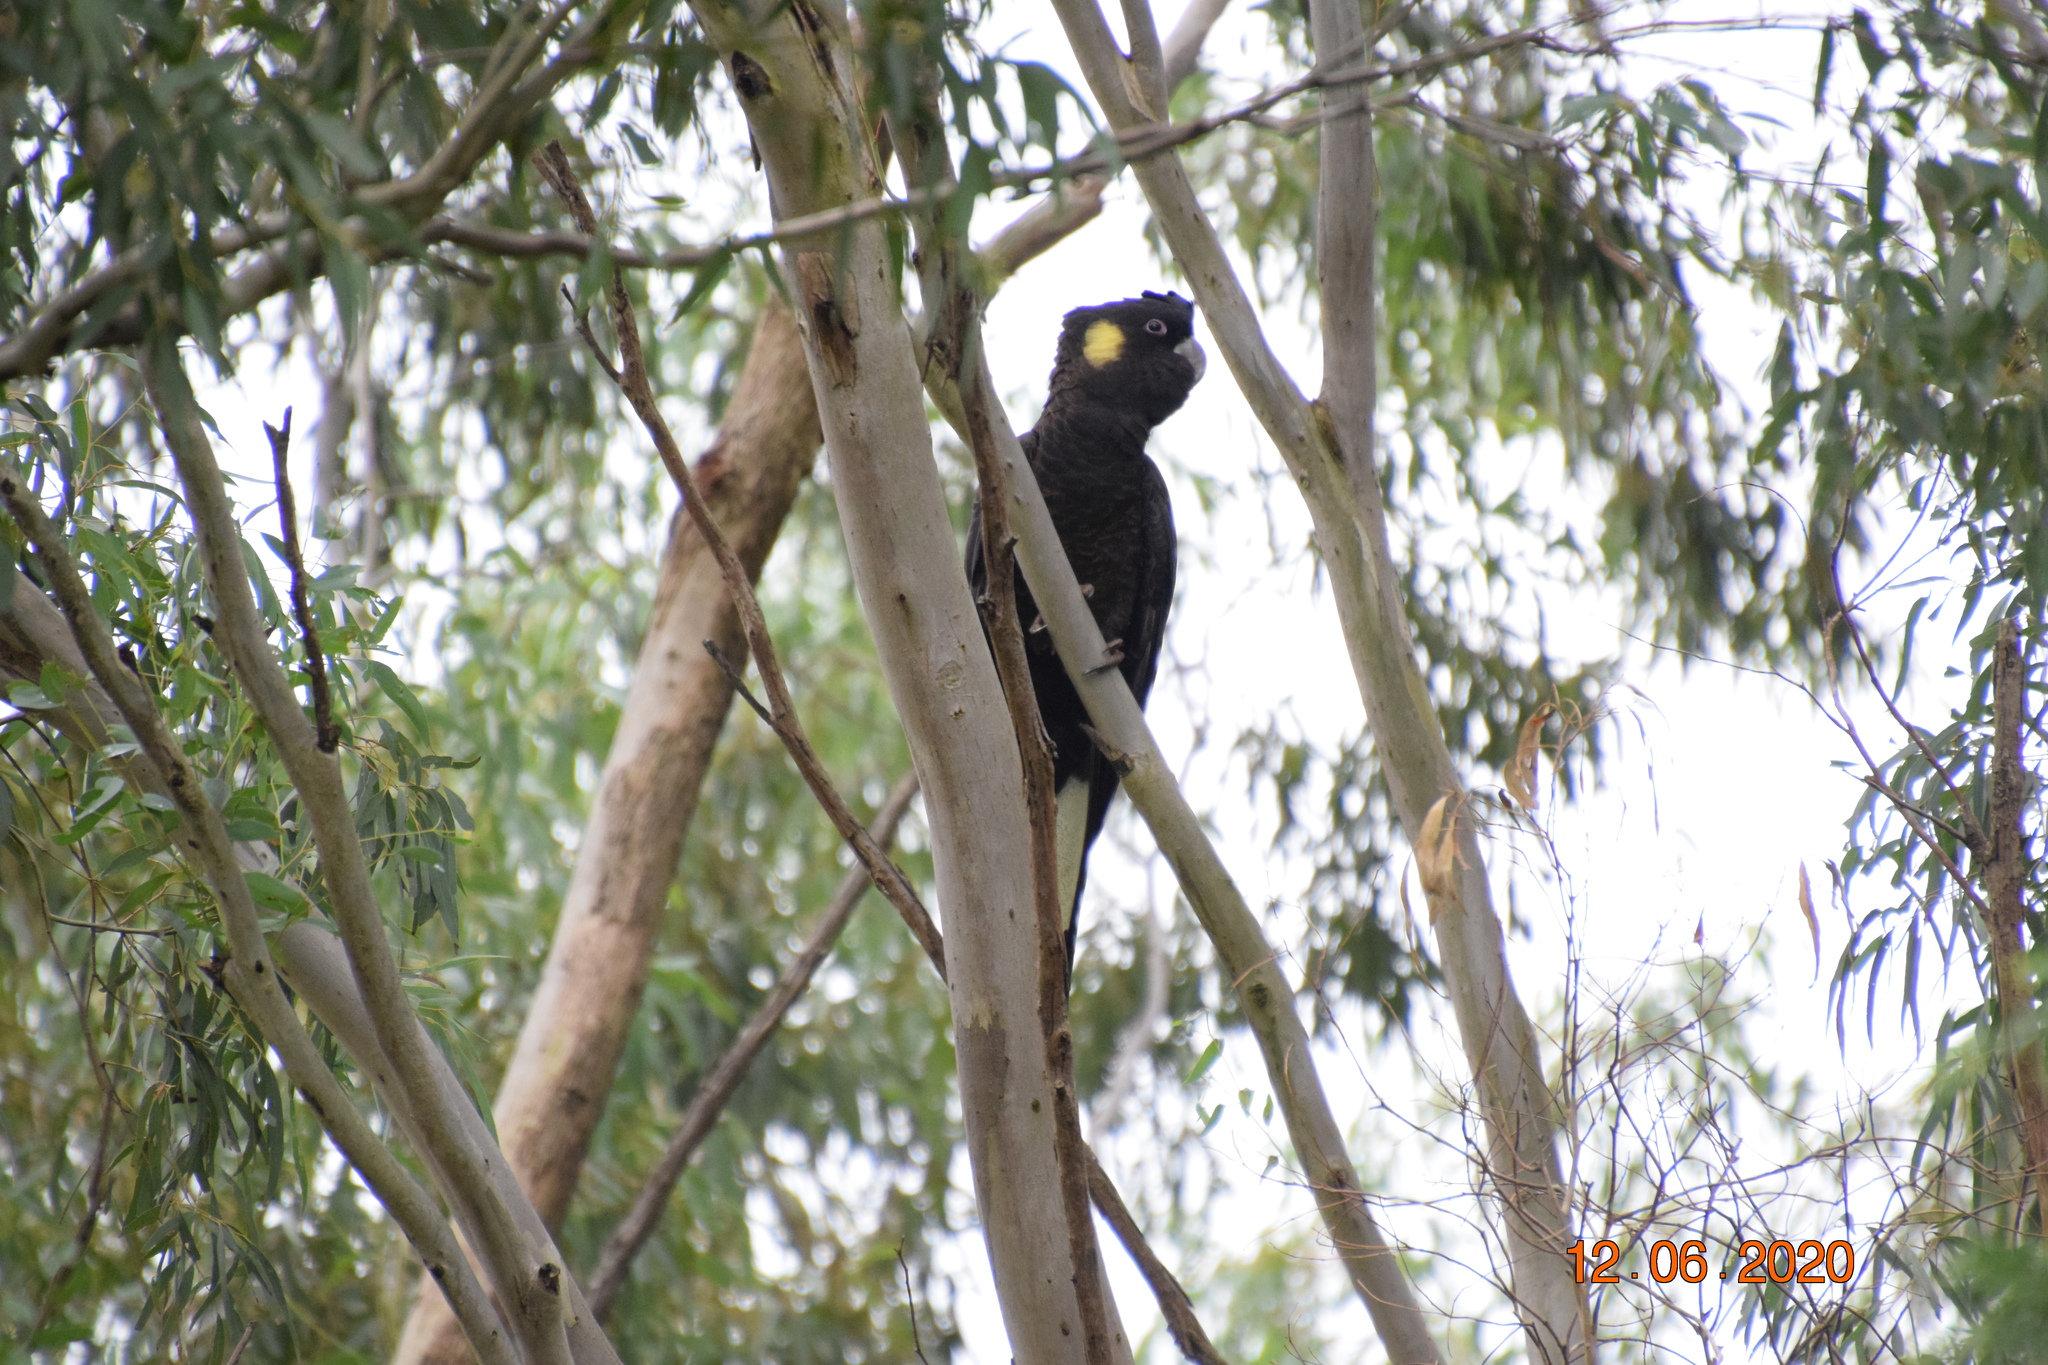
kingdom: Animalia
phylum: Chordata
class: Aves
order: Psittaciformes
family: Cacatuidae
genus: Zanda
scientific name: Zanda funerea
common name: Yellow-tailed black-cockatoo
